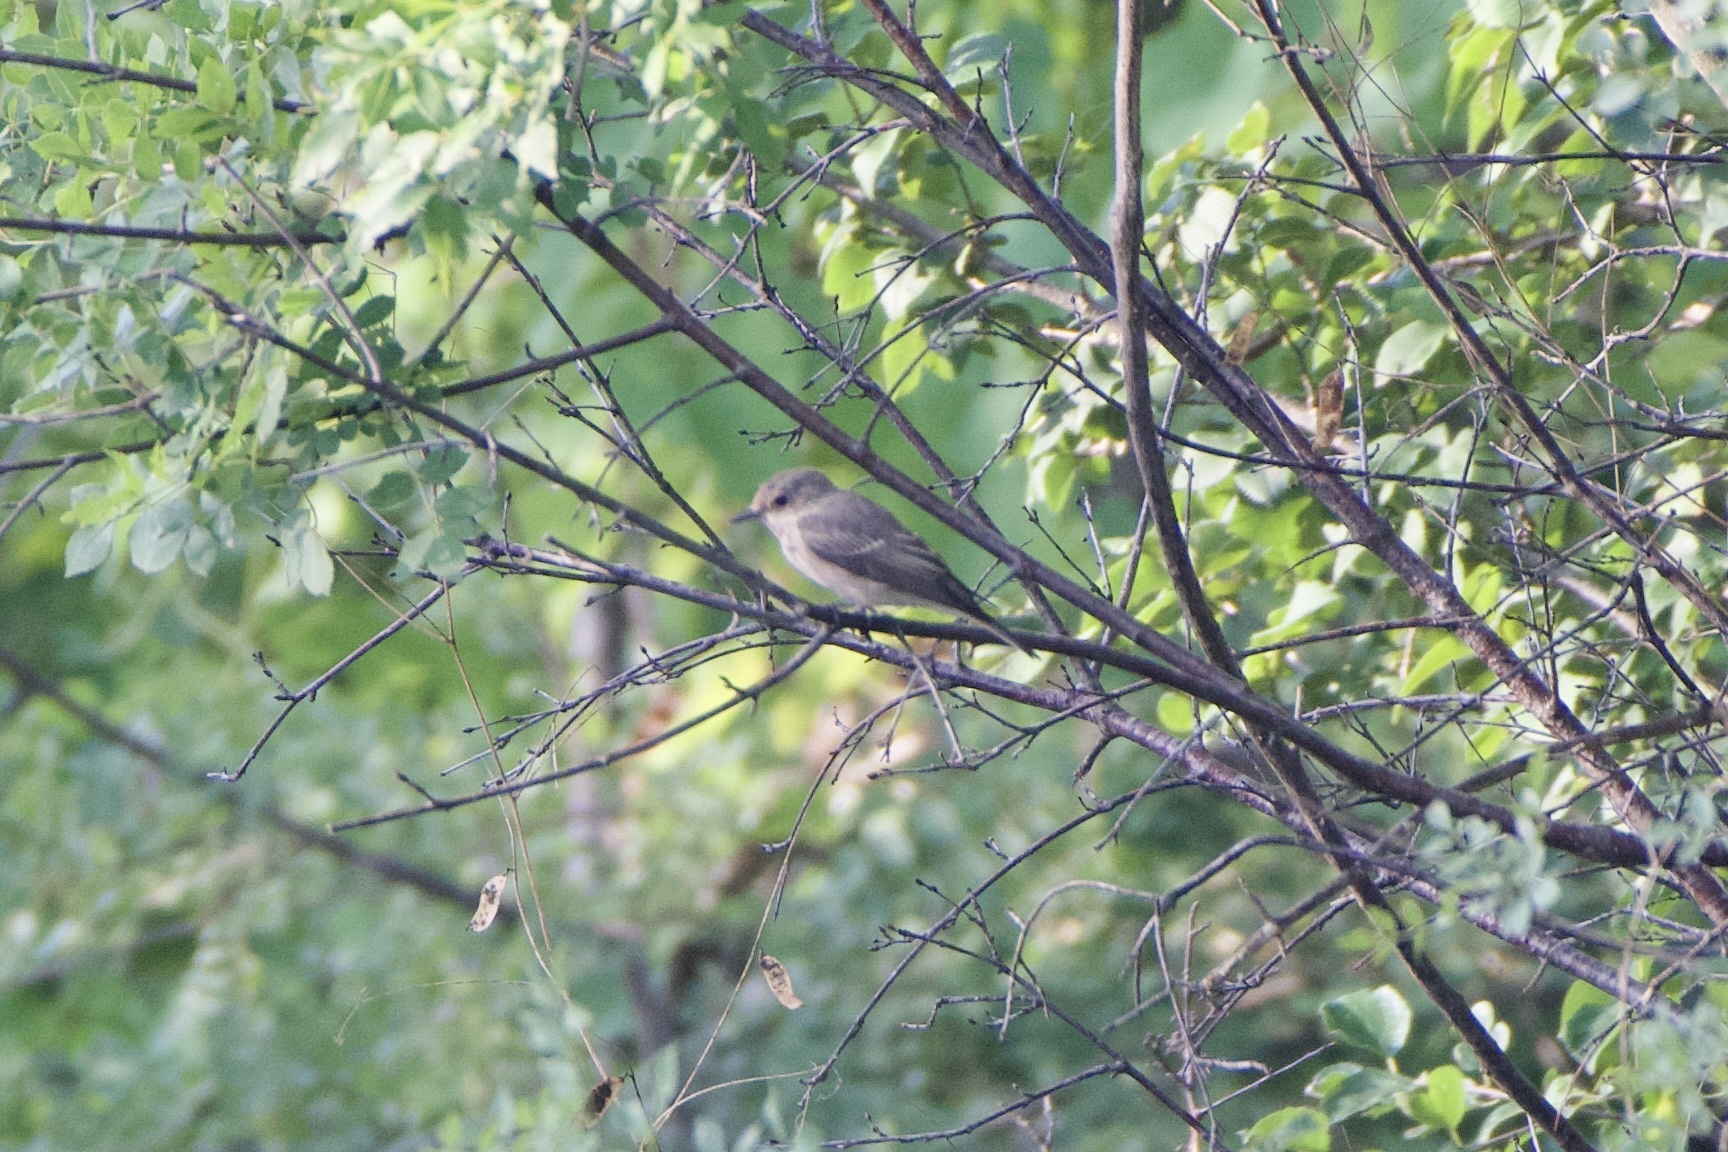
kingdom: Animalia
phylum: Chordata
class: Aves
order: Passeriformes
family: Muscicapidae
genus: Muscicapa
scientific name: Muscicapa striata
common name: Spotted flycatcher
